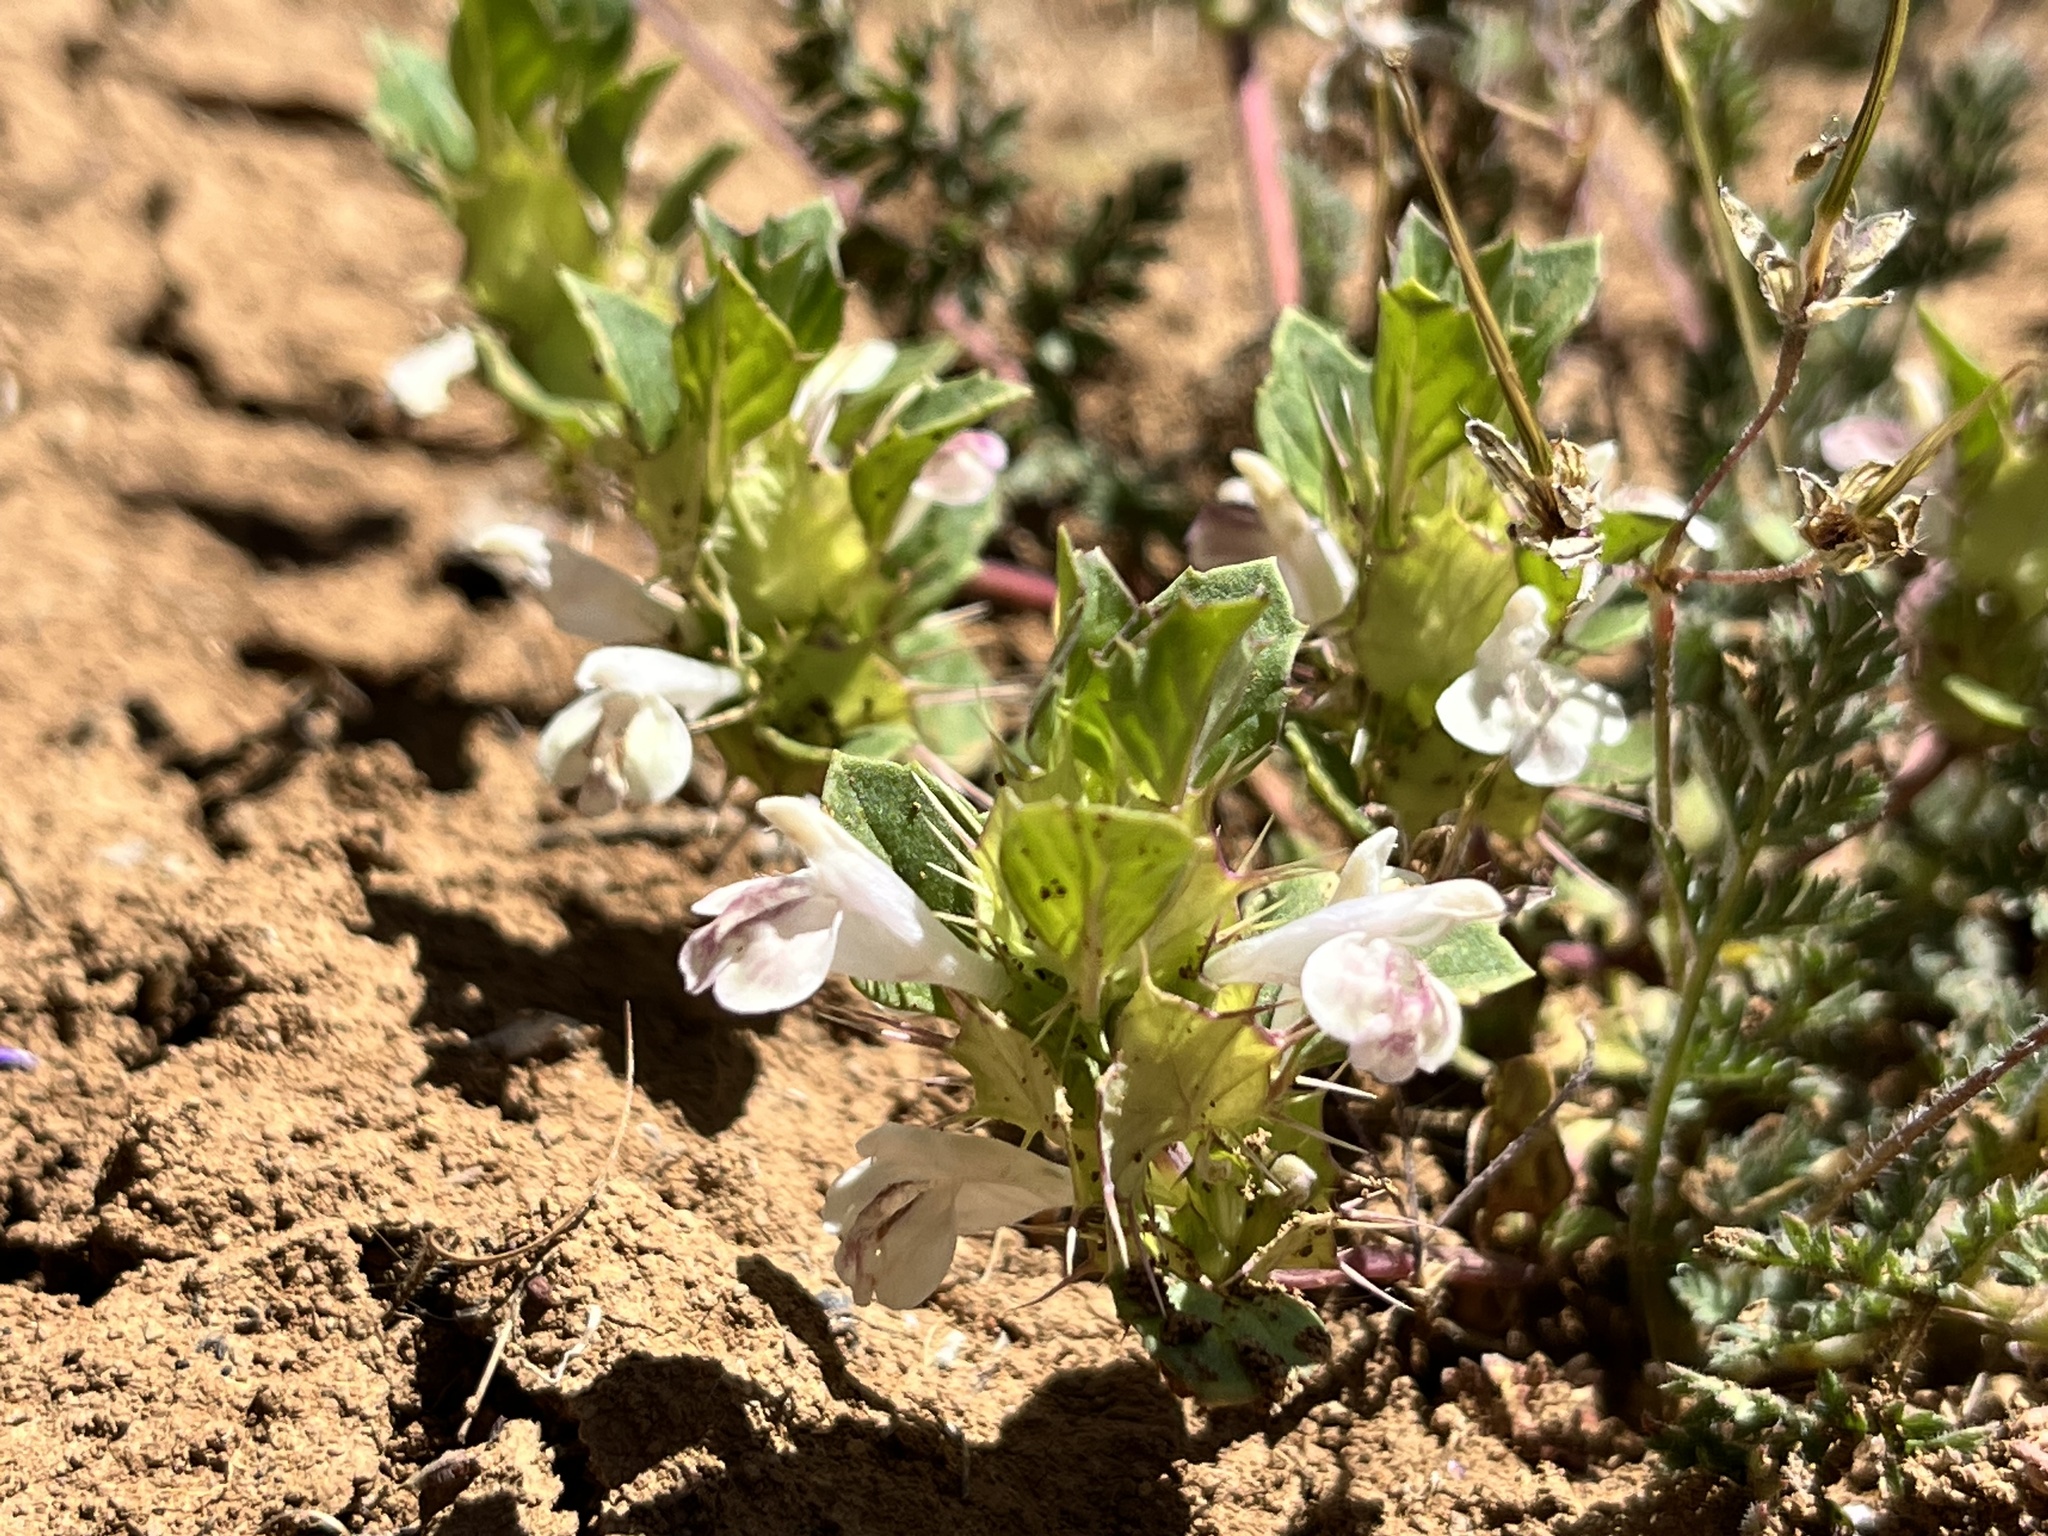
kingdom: Plantae
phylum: Tracheophyta
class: Magnoliopsida
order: Lamiales
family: Lamiaceae
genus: Acanthomintha
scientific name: Acanthomintha obovata
